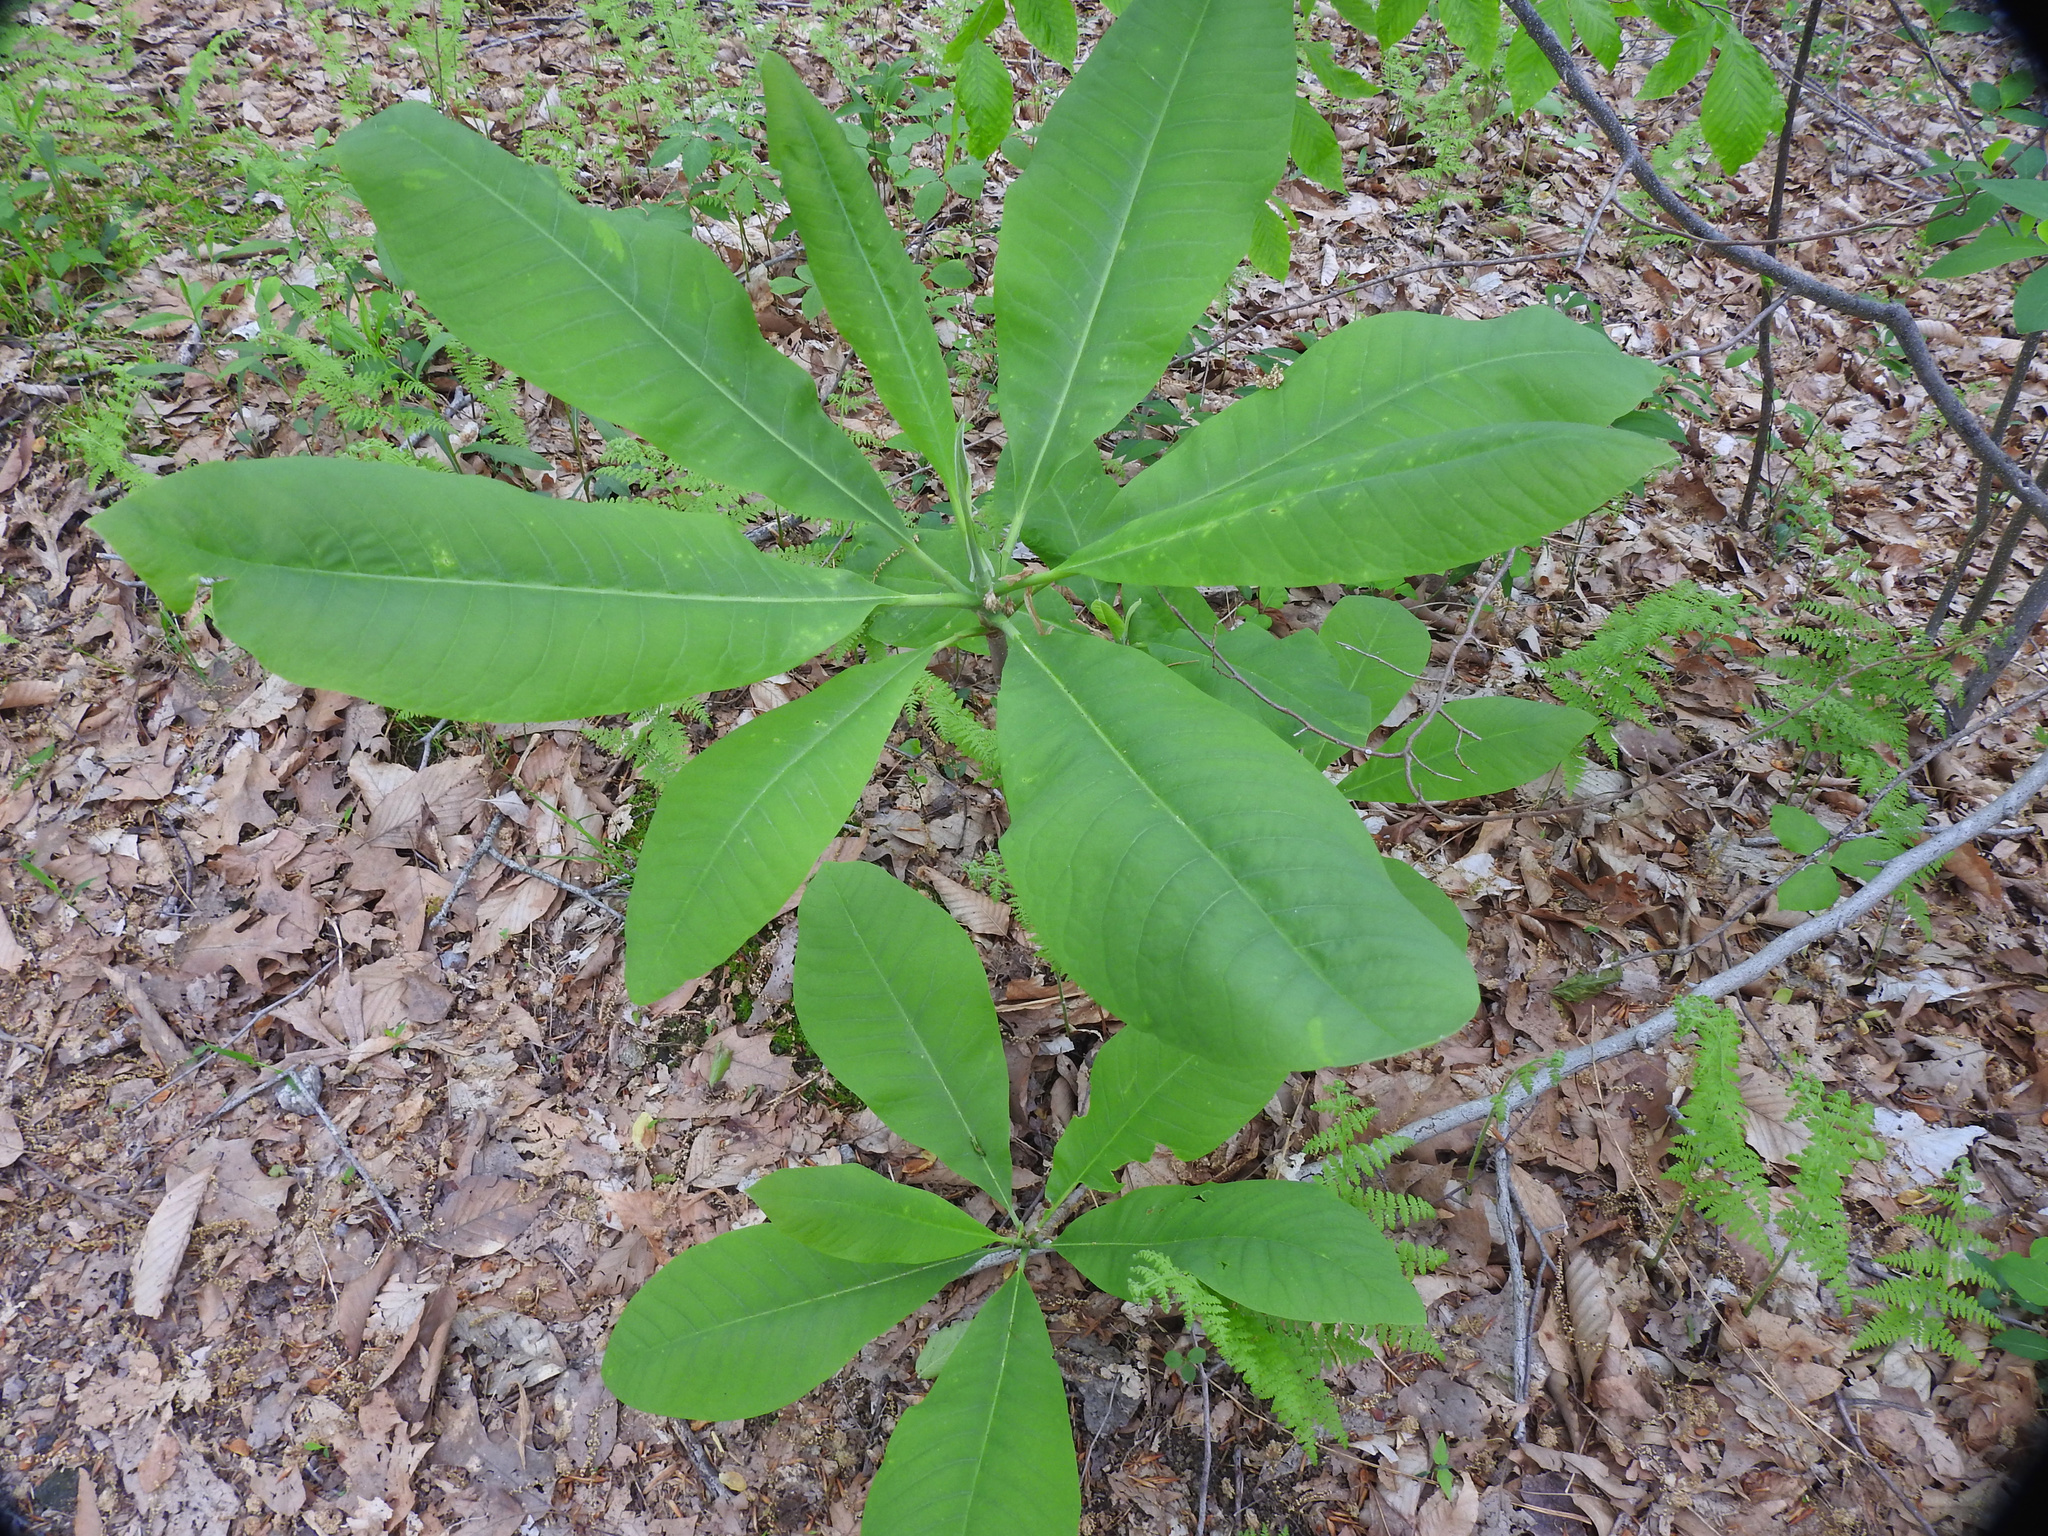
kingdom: Plantae
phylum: Tracheophyta
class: Magnoliopsida
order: Magnoliales
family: Magnoliaceae
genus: Magnolia
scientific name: Magnolia tripetala
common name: Umbrella magnolia
